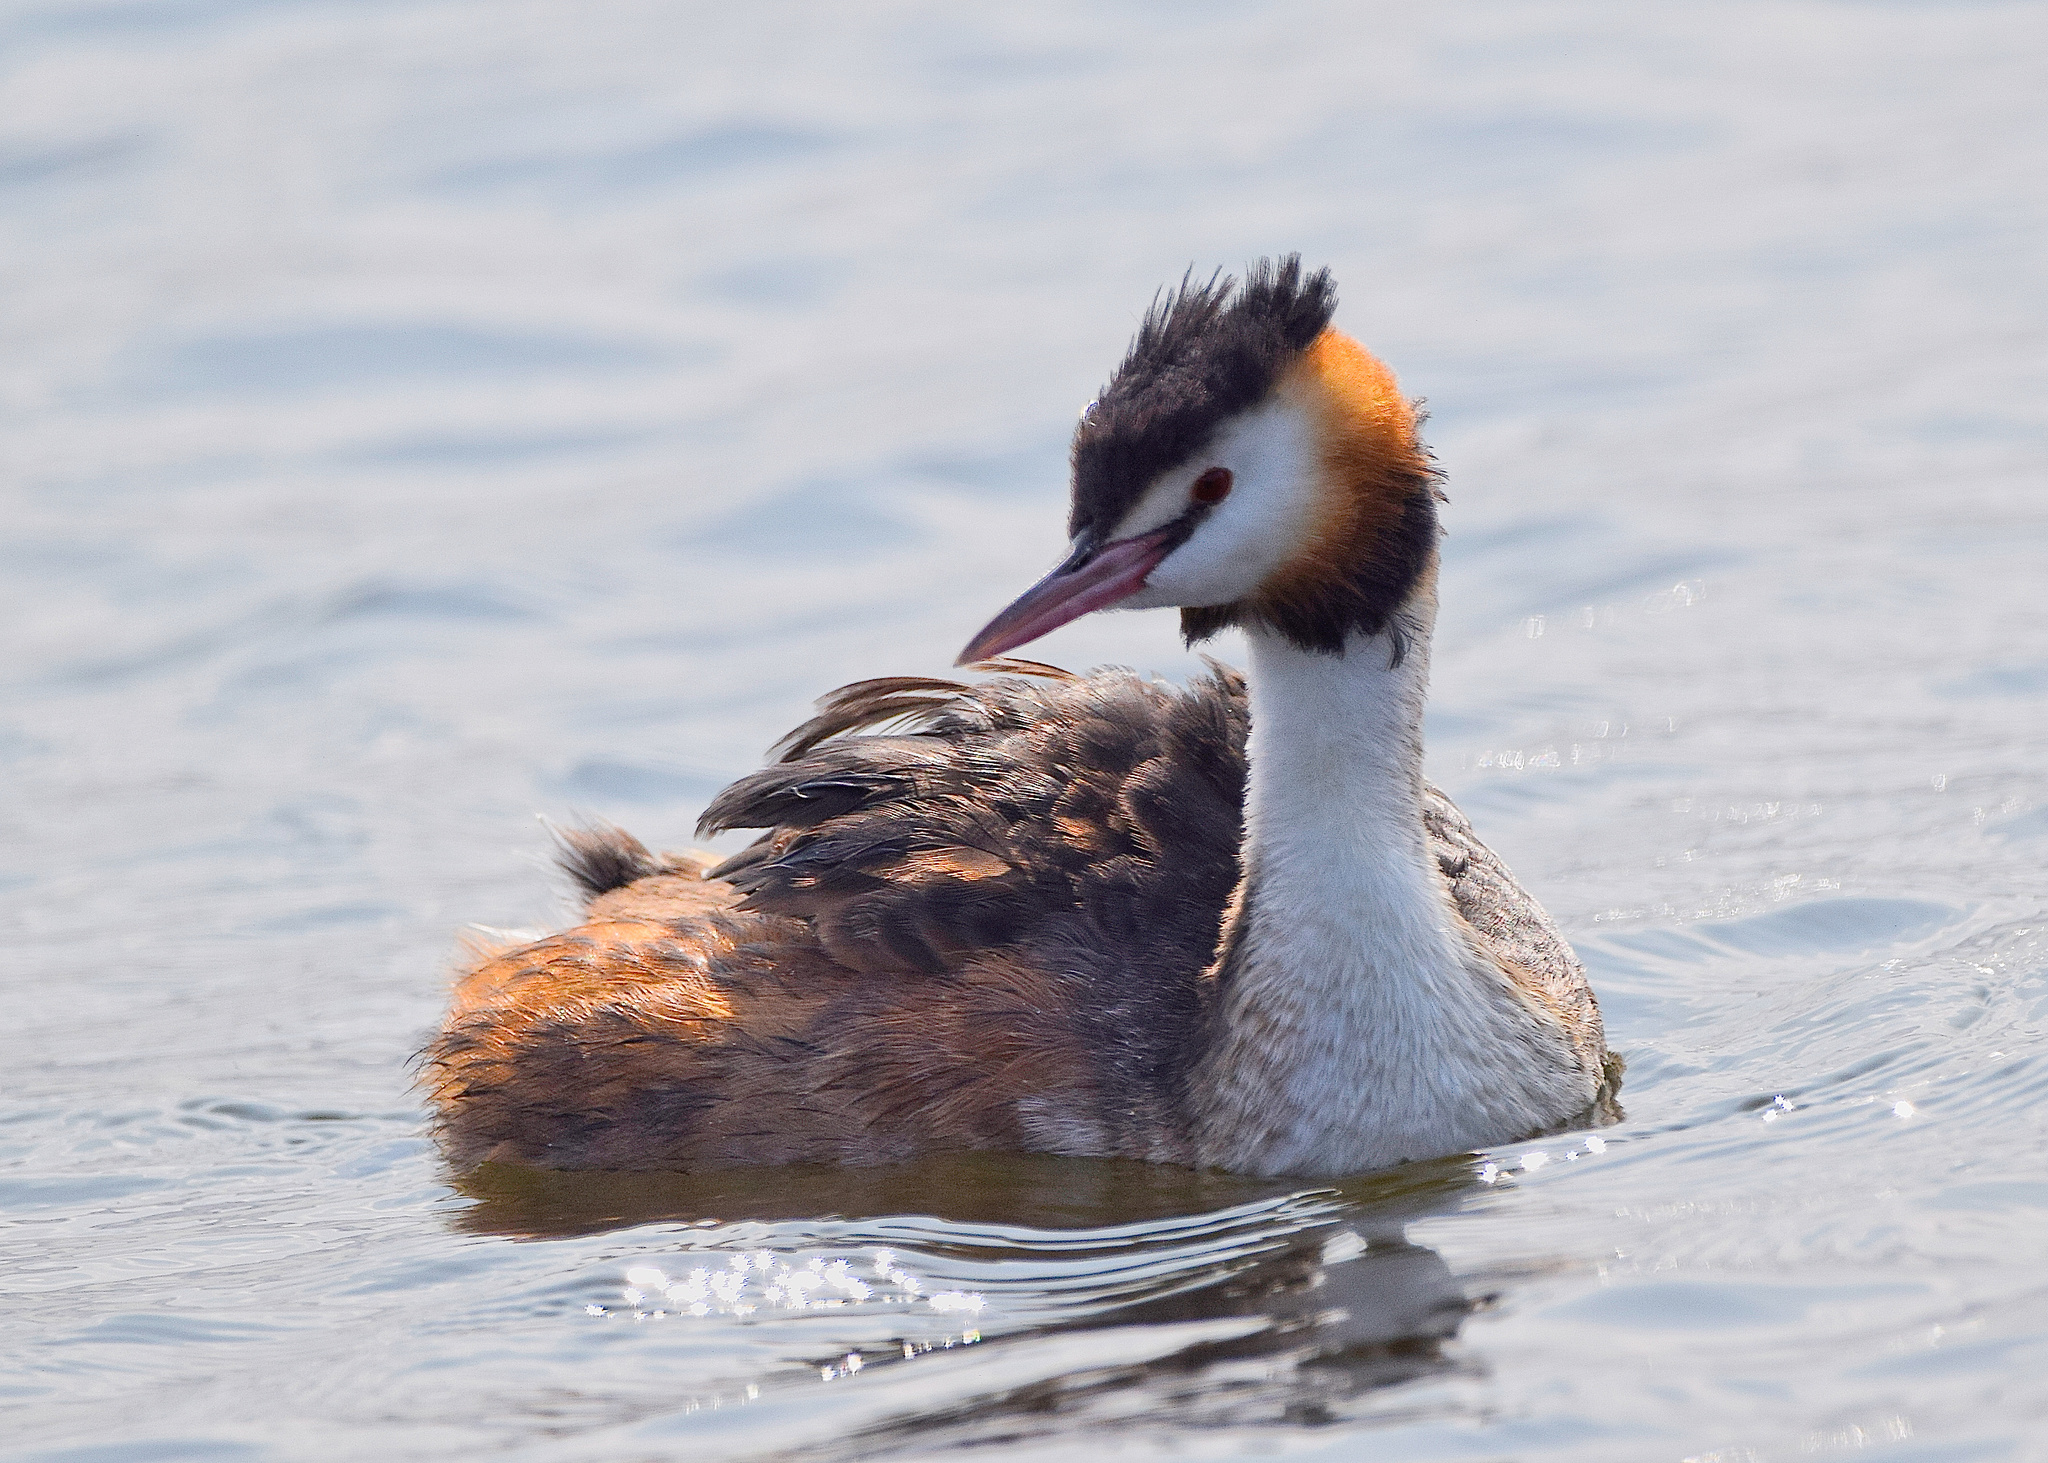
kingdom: Animalia
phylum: Chordata
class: Aves
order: Podicipediformes
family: Podicipedidae
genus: Podiceps
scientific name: Podiceps cristatus
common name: Great crested grebe
